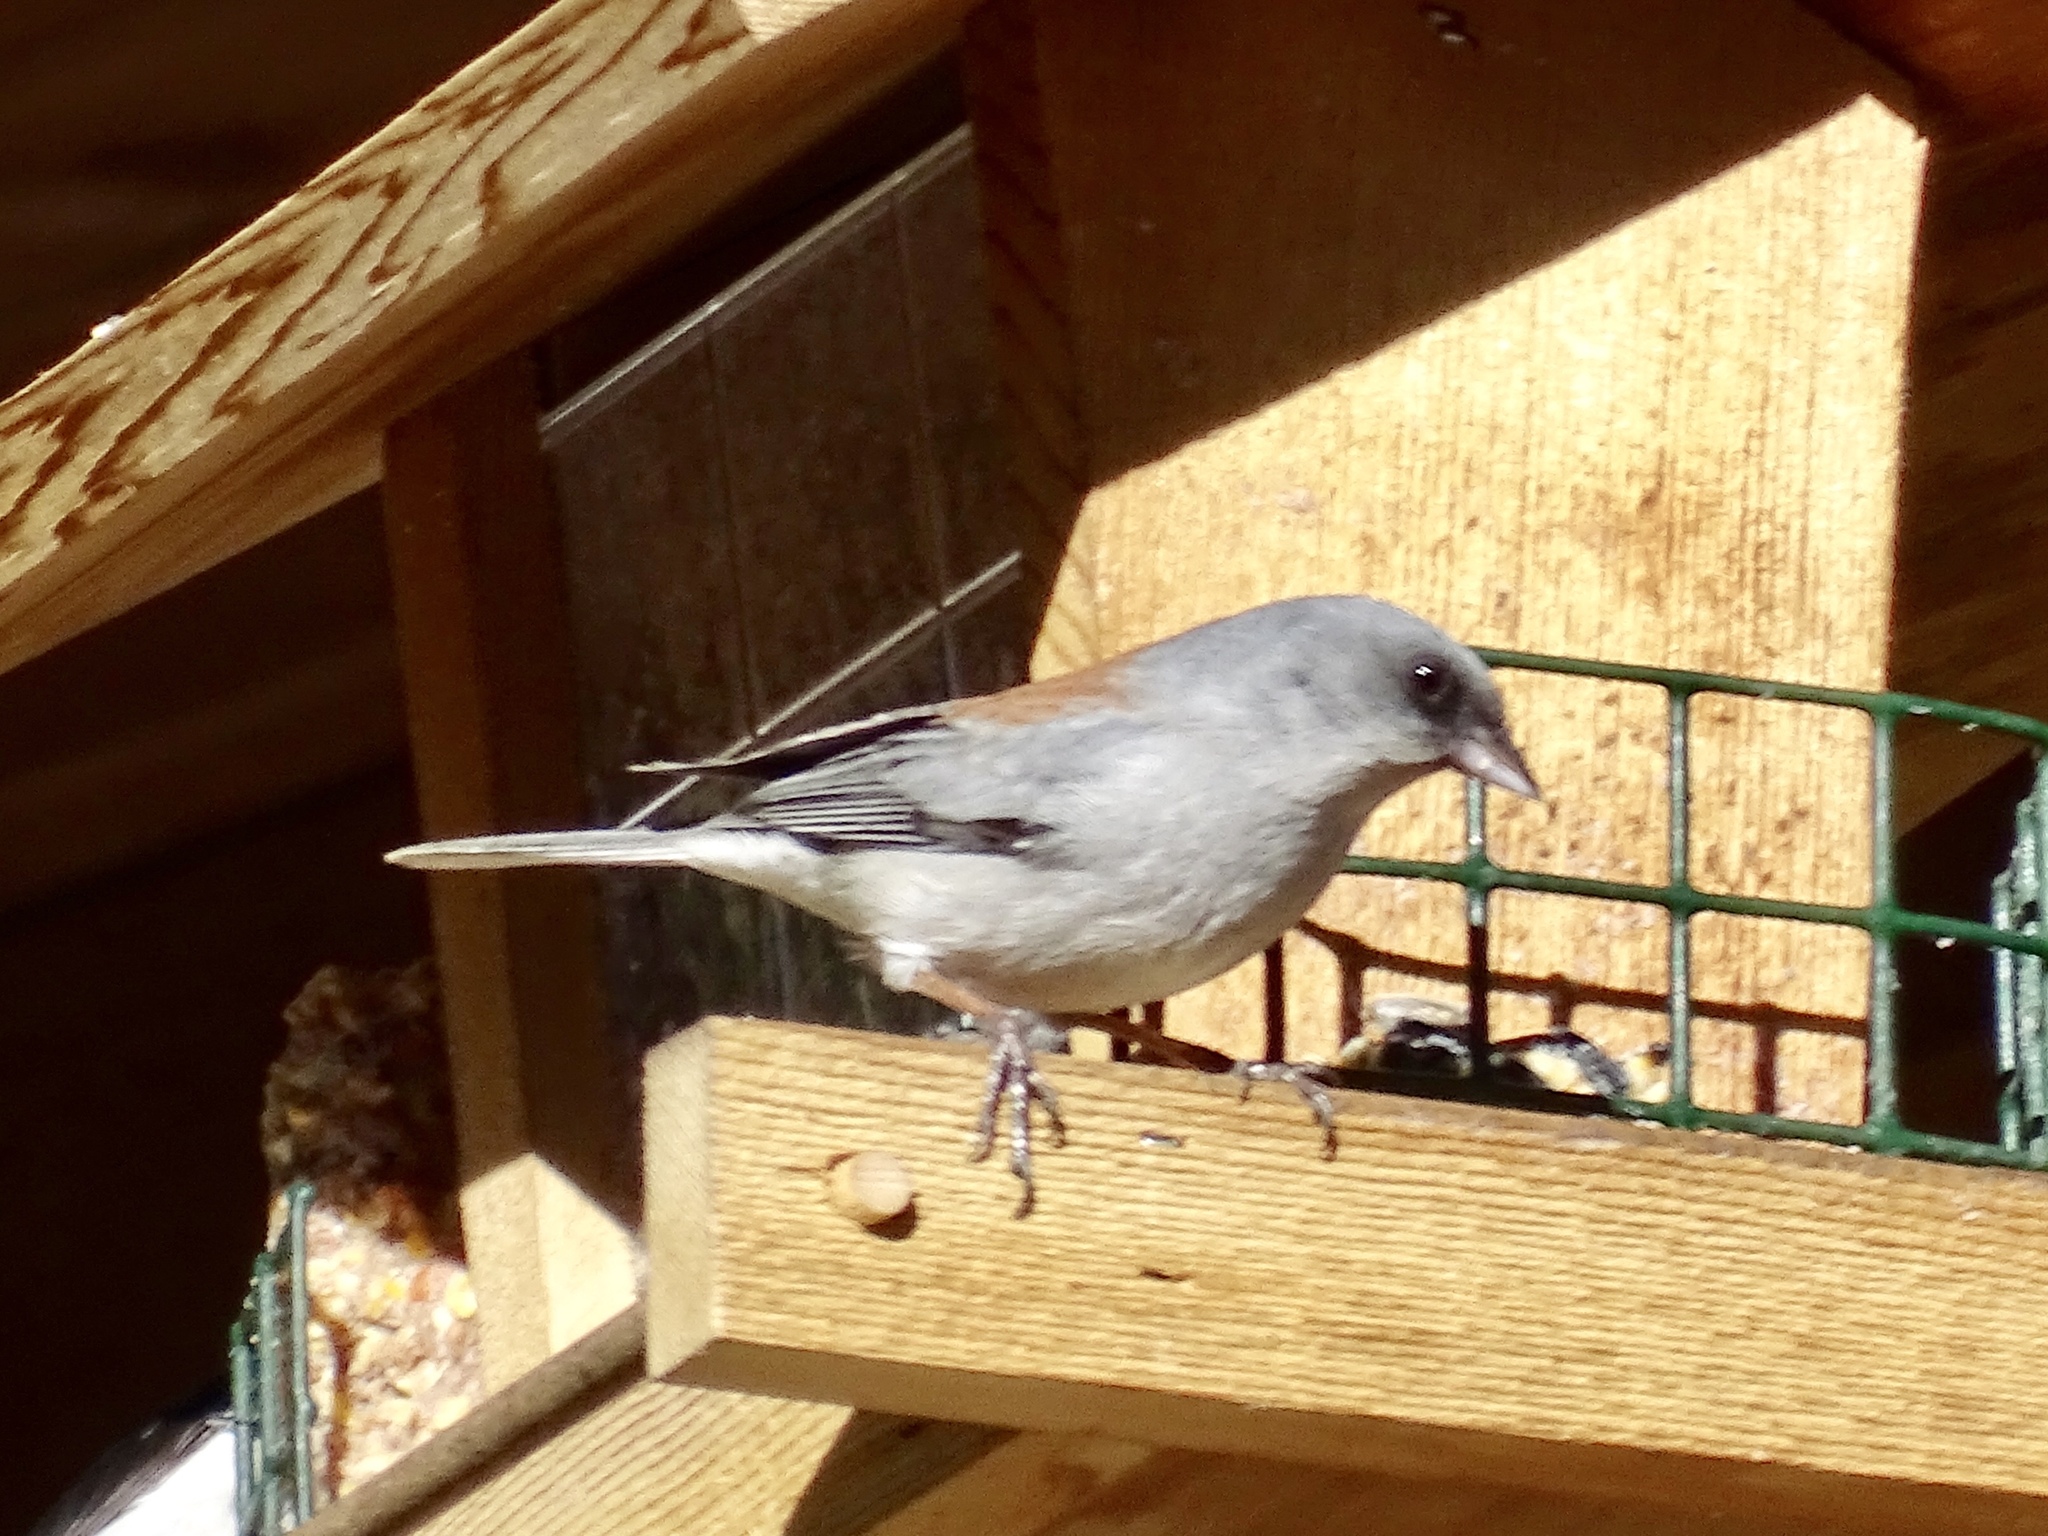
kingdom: Animalia
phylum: Chordata
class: Aves
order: Passeriformes
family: Passerellidae
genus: Junco
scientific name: Junco hyemalis
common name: Dark-eyed junco
